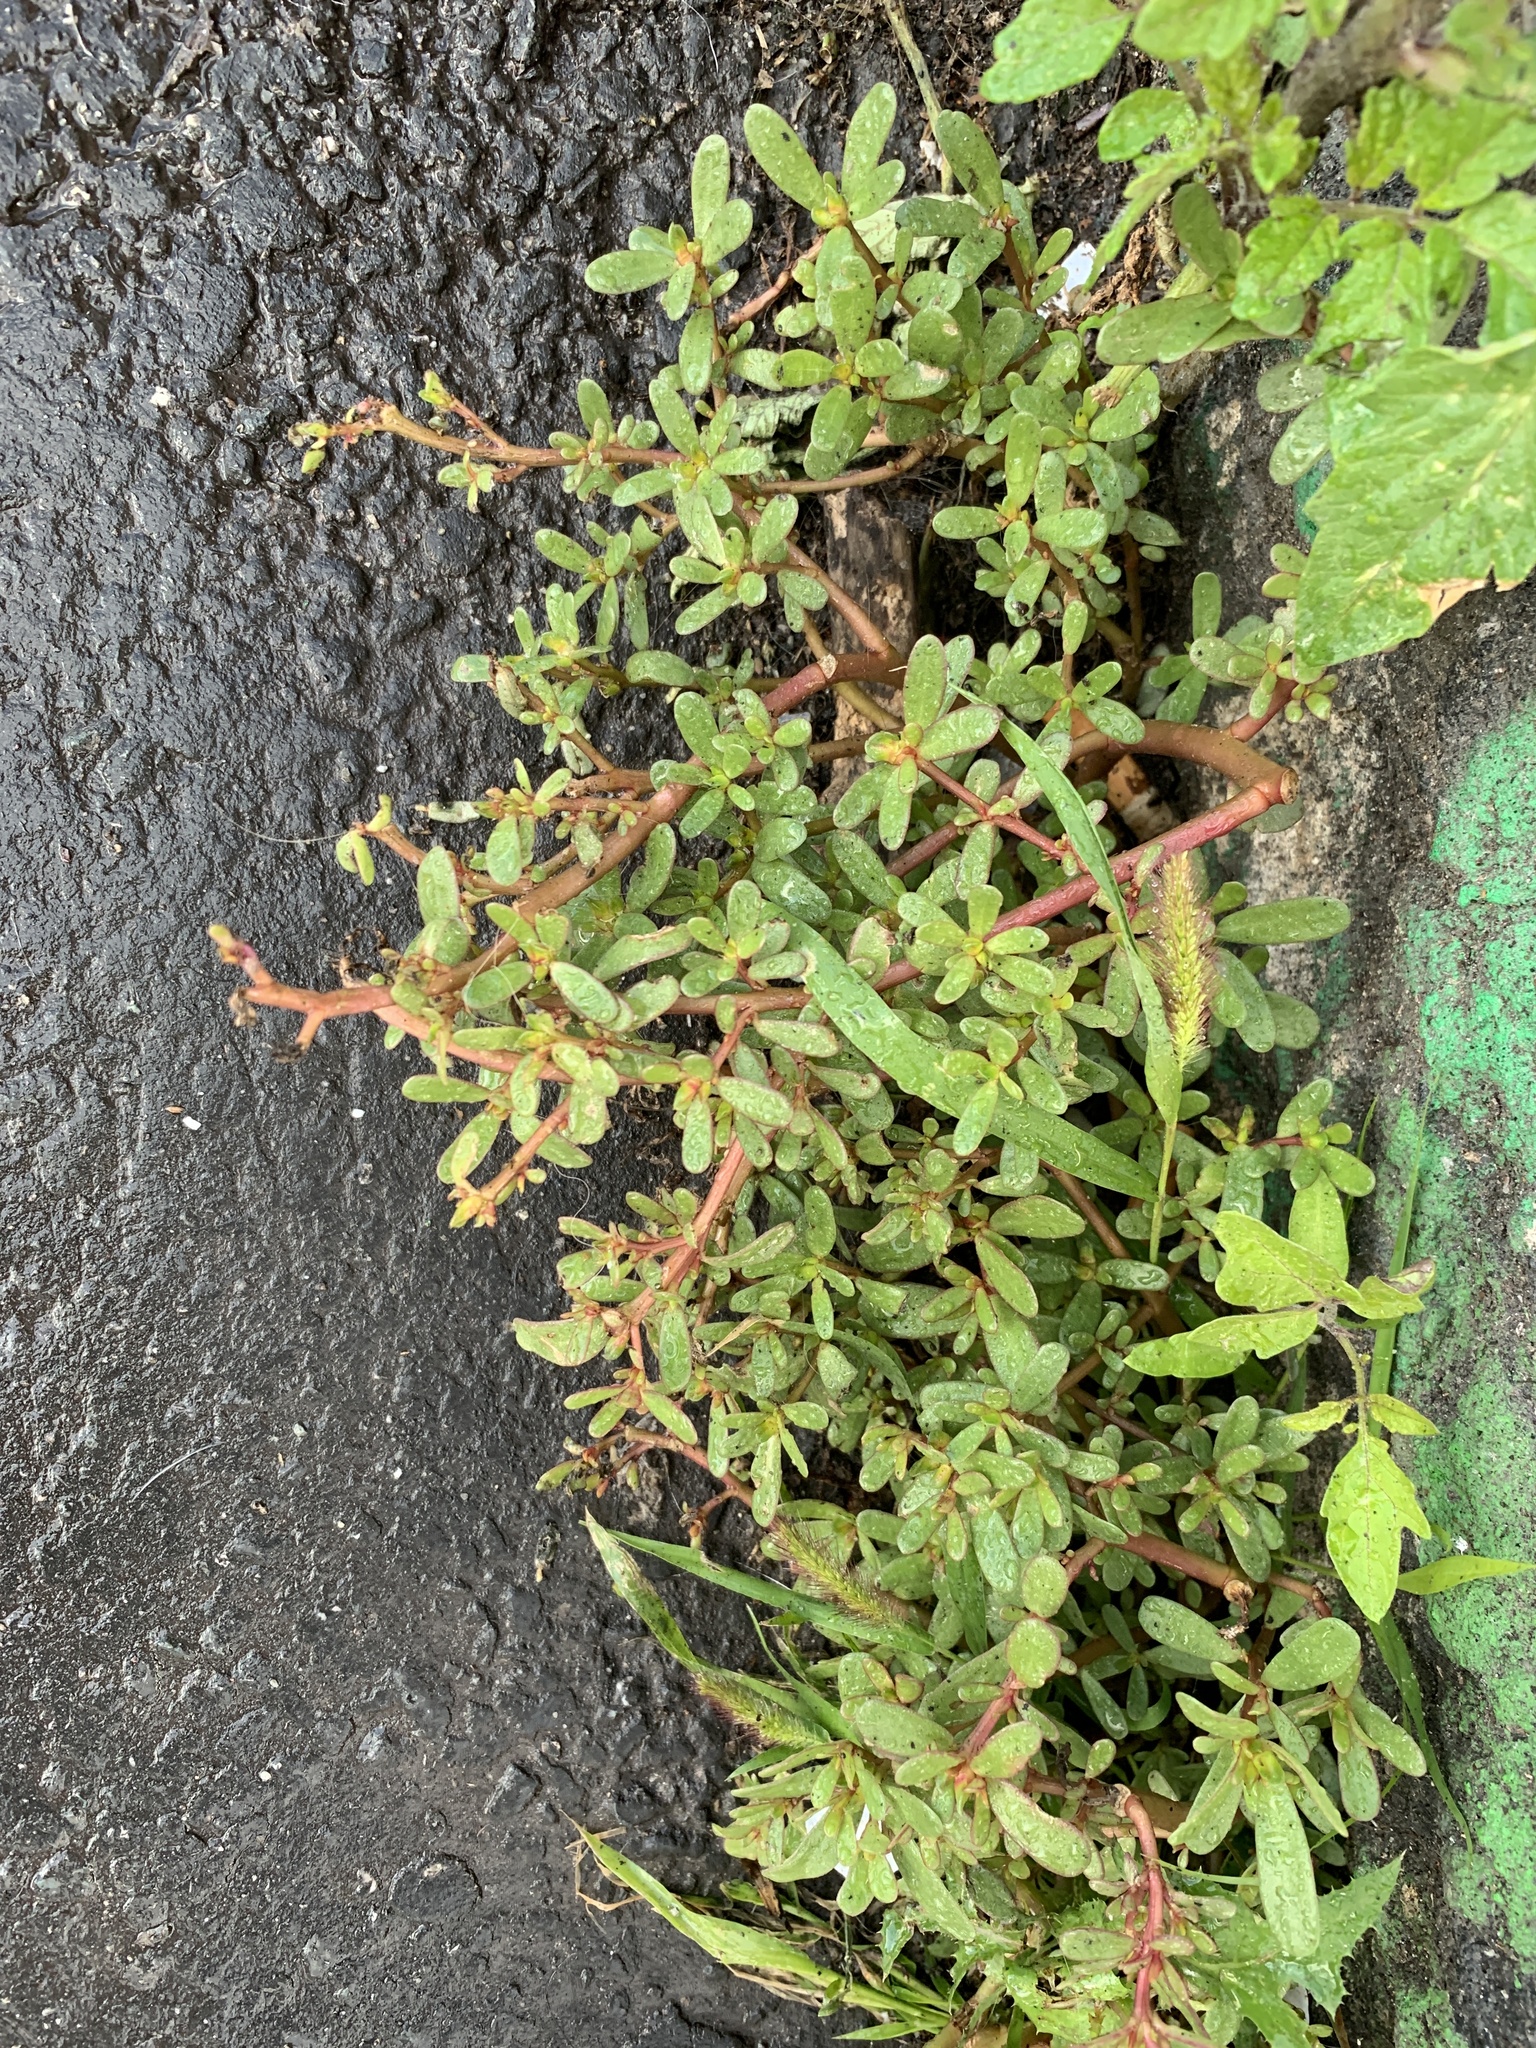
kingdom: Plantae
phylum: Tracheophyta
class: Magnoliopsida
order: Caryophyllales
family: Portulacaceae
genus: Portulaca
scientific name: Portulaca oleracea
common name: Common purslane
